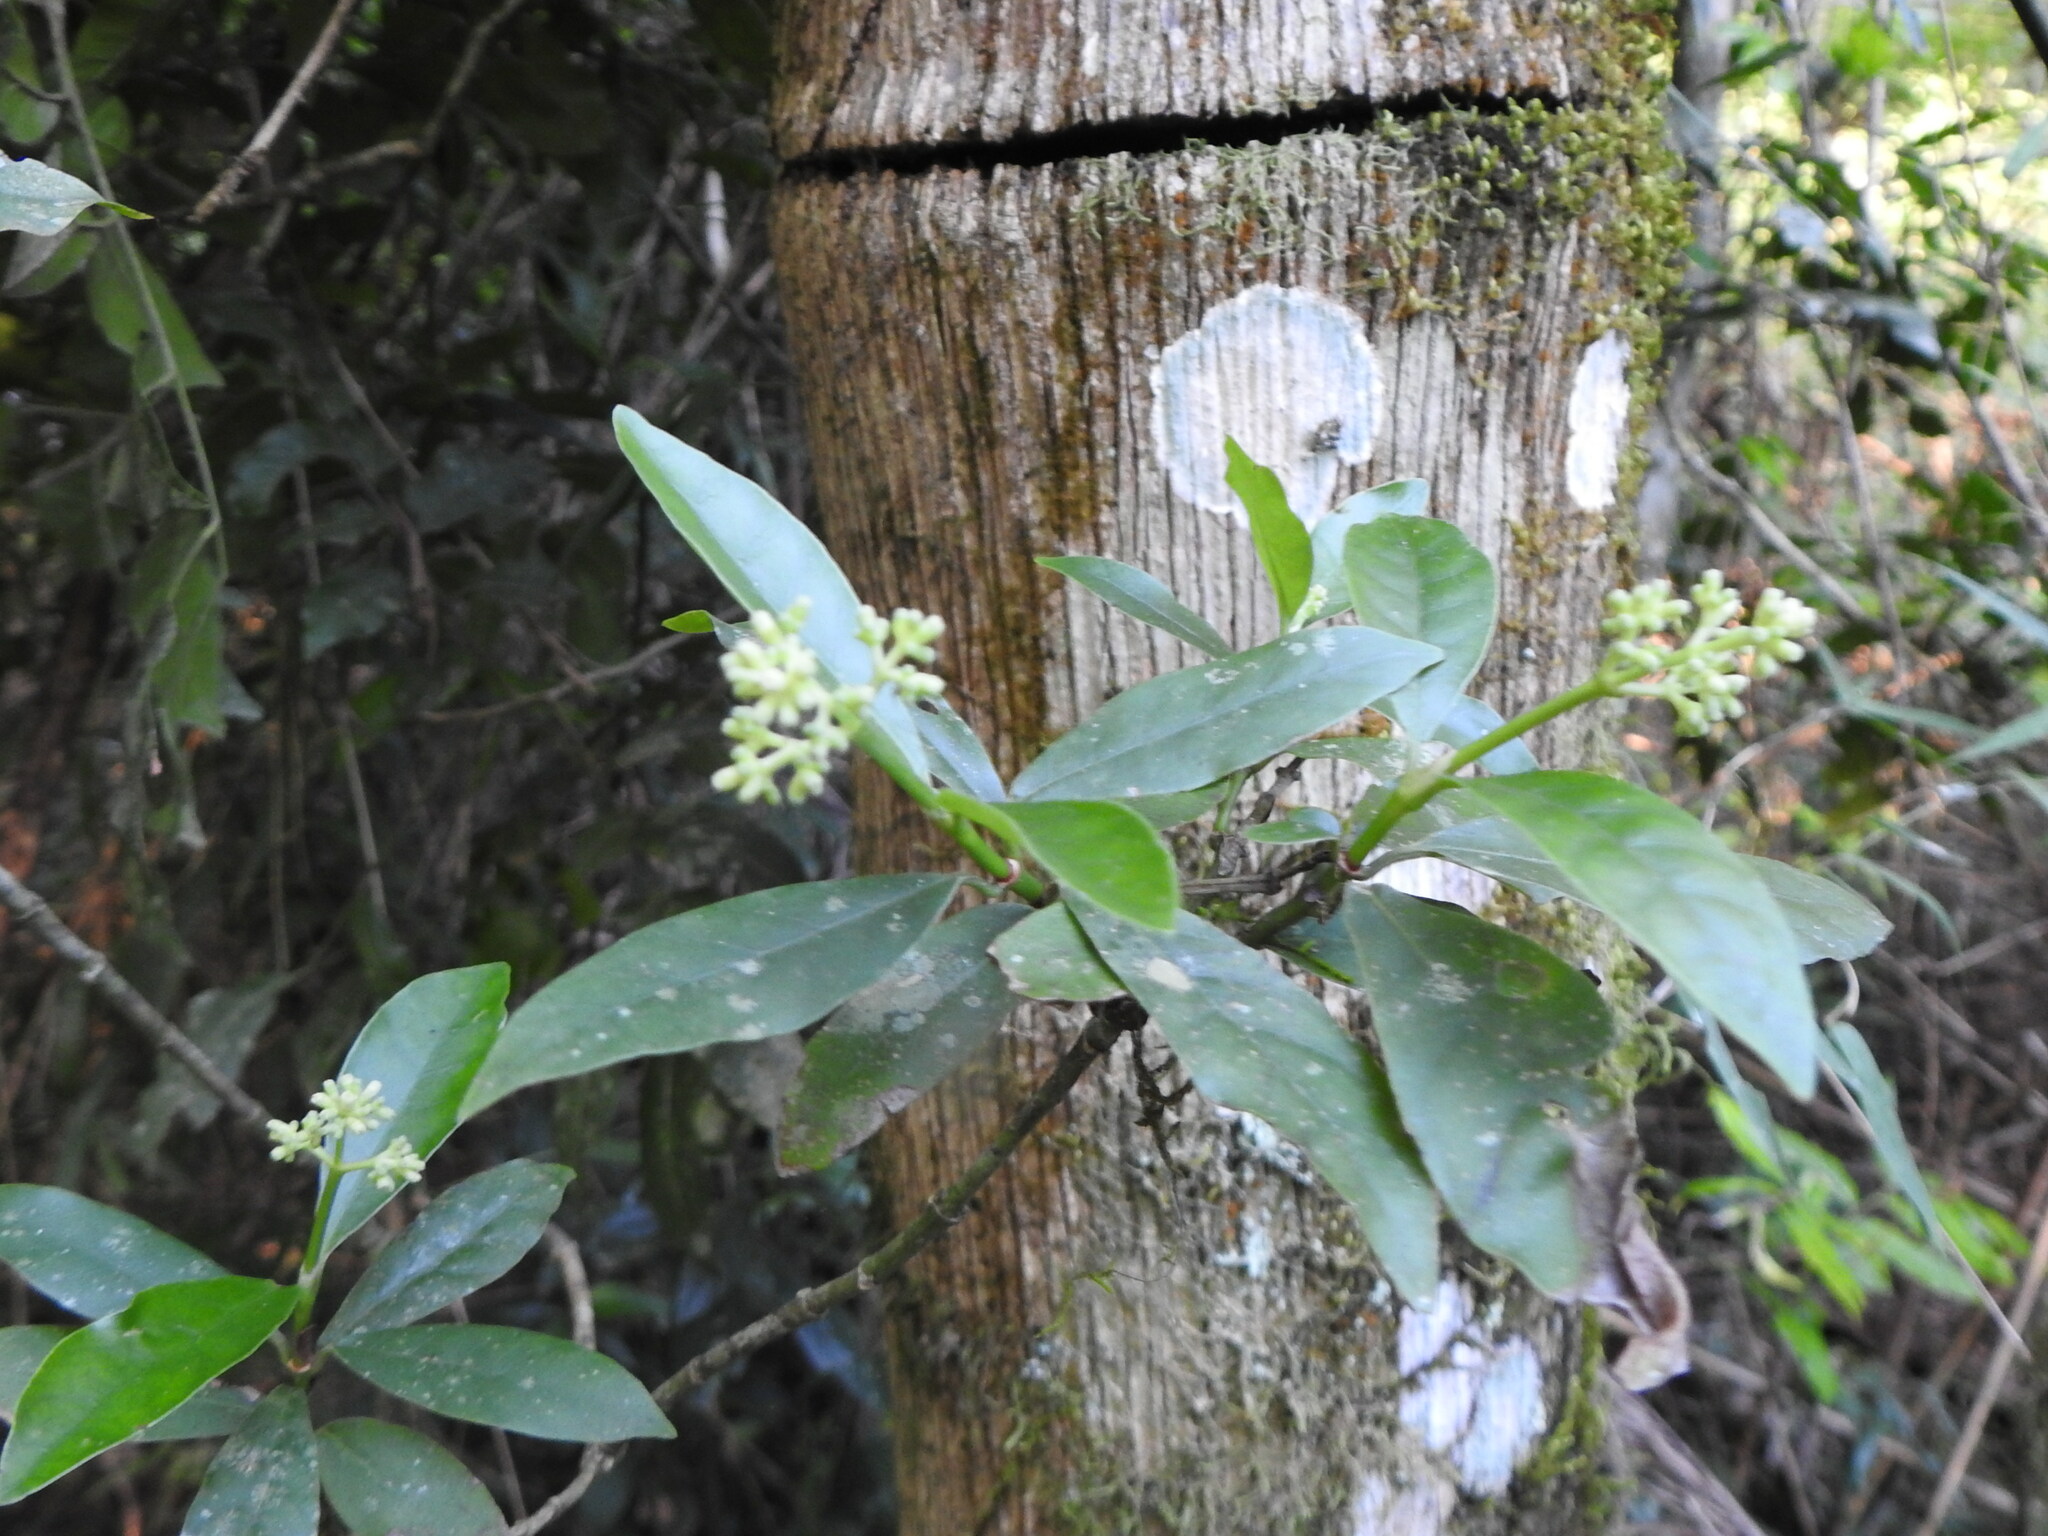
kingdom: Plantae
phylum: Tracheophyta
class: Magnoliopsida
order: Gentianales
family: Rubiaceae
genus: Psychotria
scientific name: Psychotria carthagenensis
